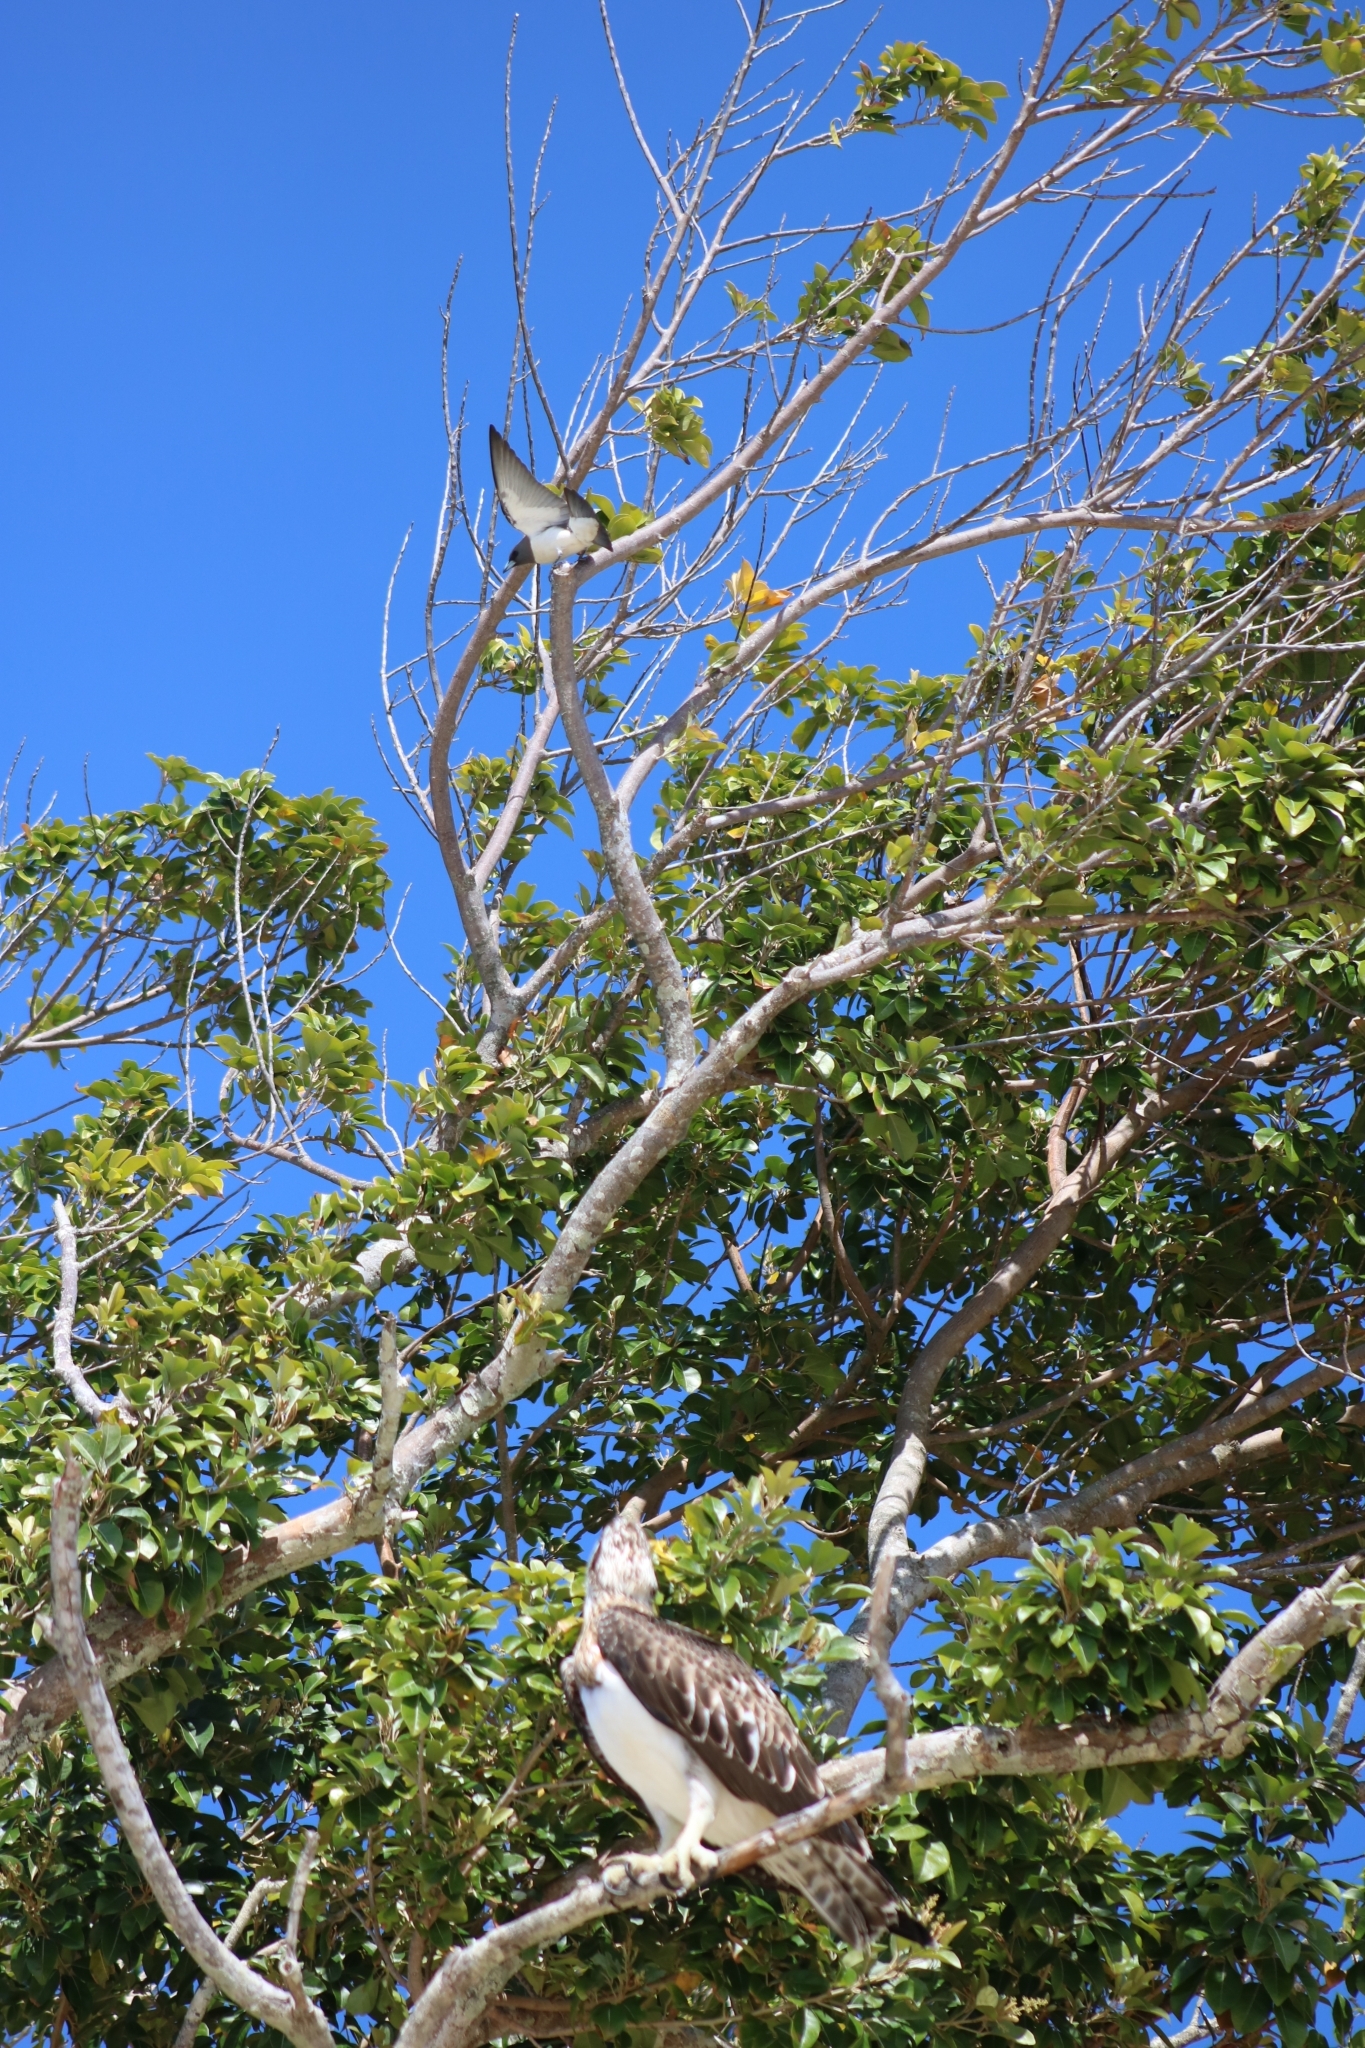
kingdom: Animalia
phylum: Chordata
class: Aves
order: Passeriformes
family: Artamidae
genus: Artamus
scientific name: Artamus leucoryn
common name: White-breasted woodswallow
